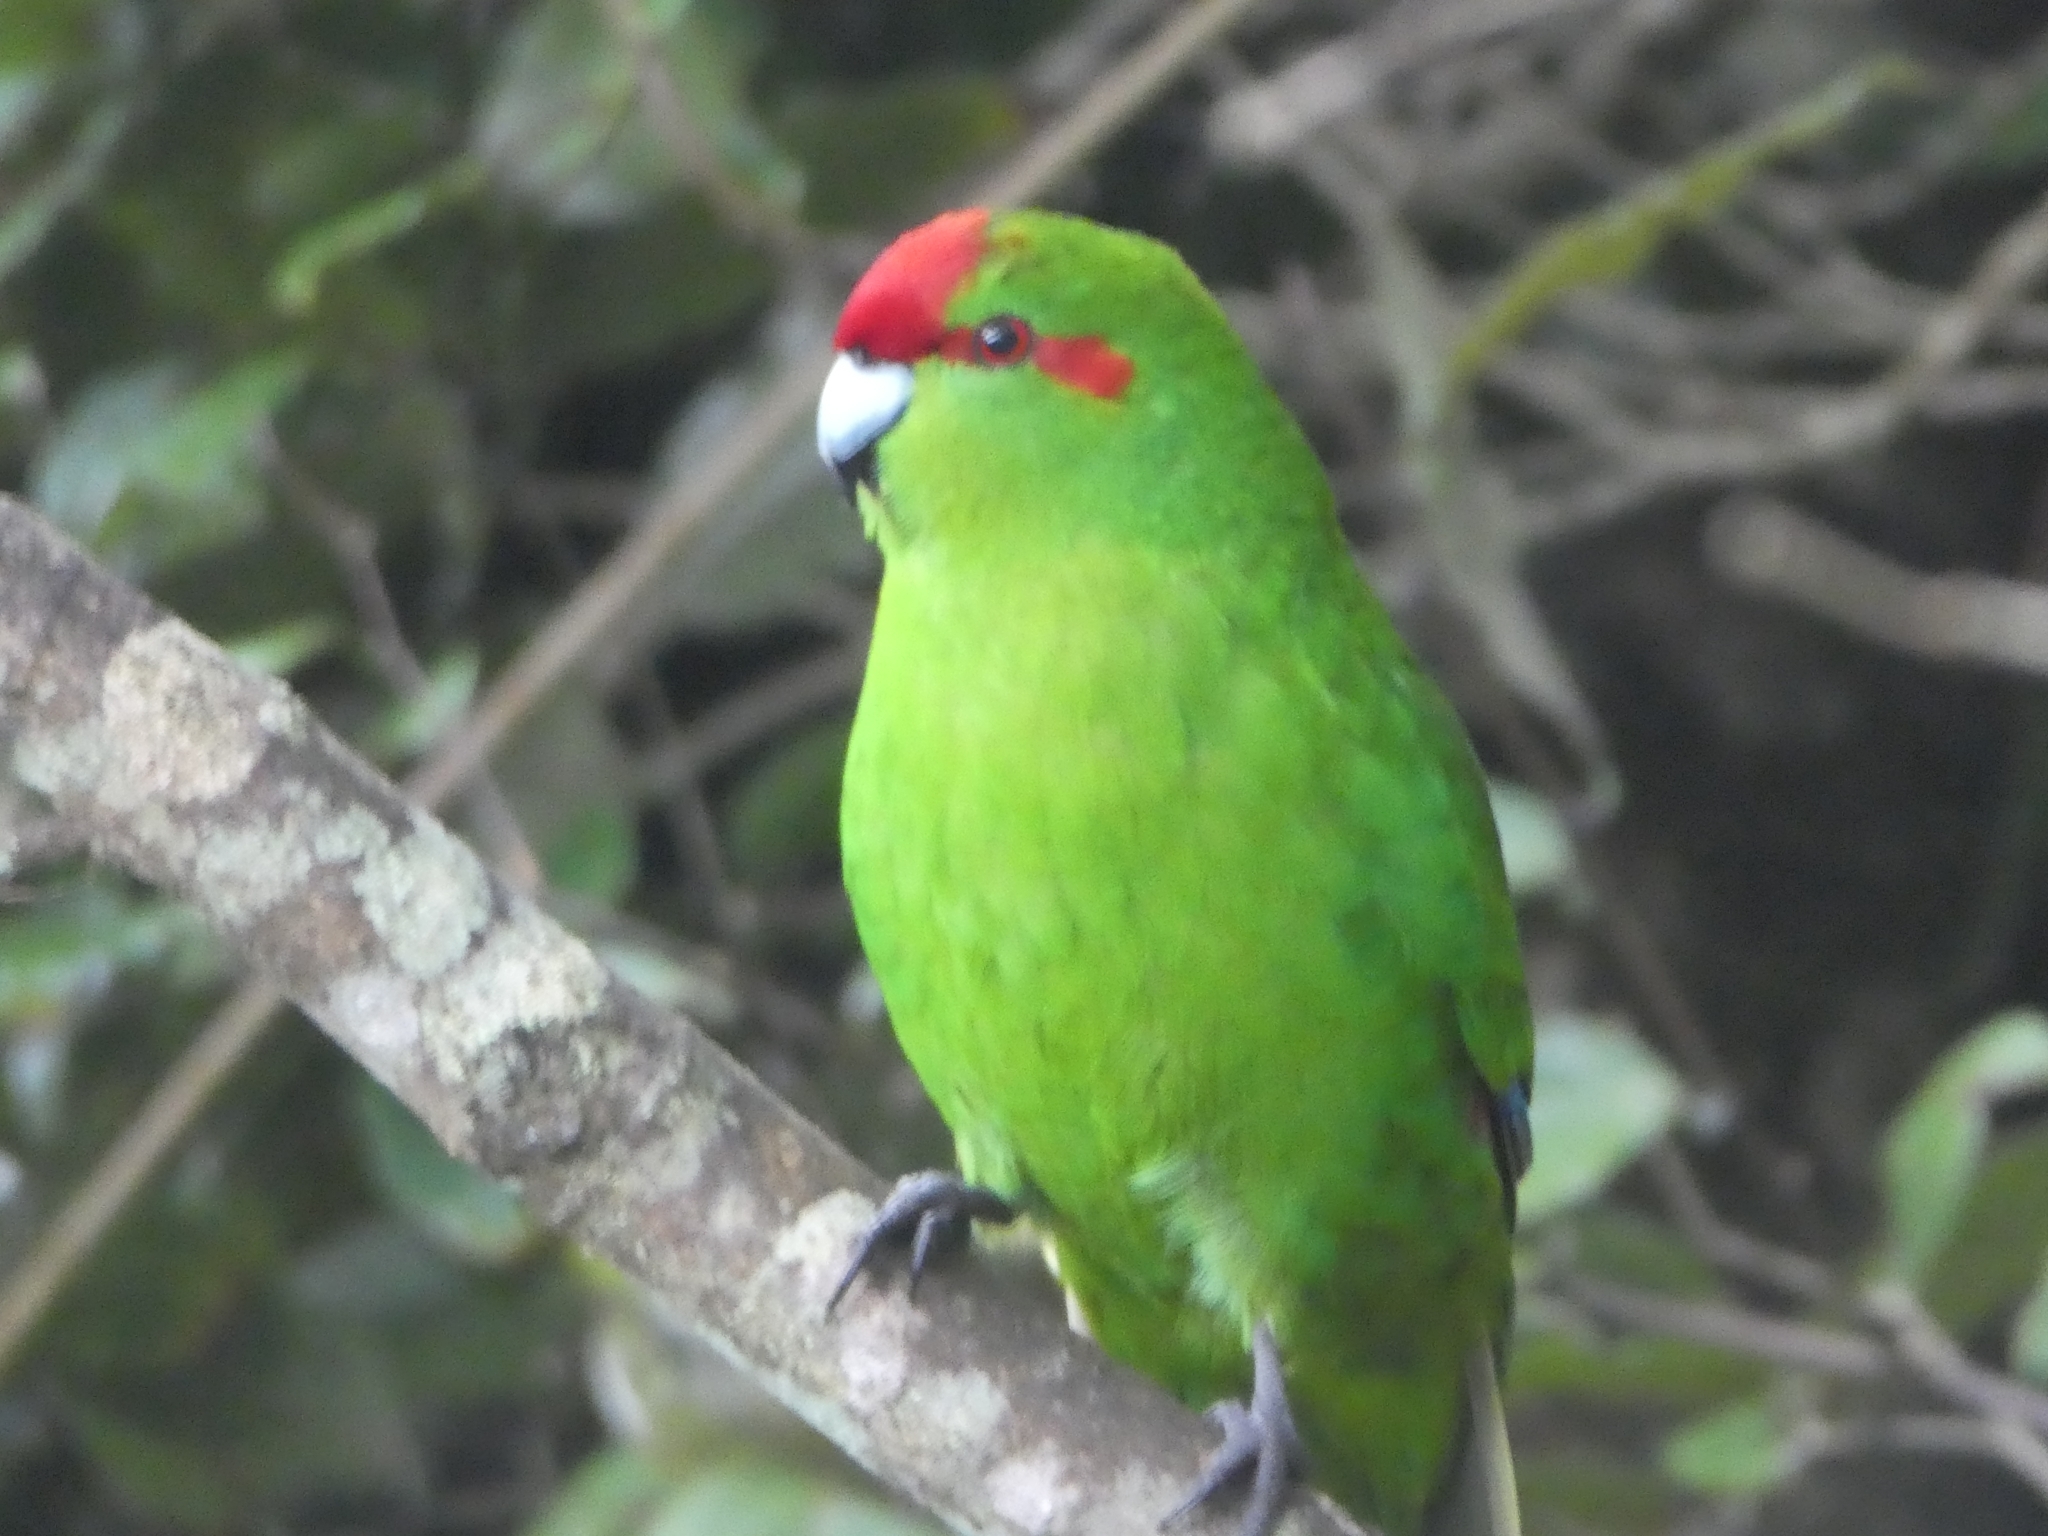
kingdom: Animalia
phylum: Chordata
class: Aves
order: Psittaciformes
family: Psittacidae
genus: Cyanoramphus
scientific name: Cyanoramphus novaezelandiae
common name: Red-fronted parakeet
